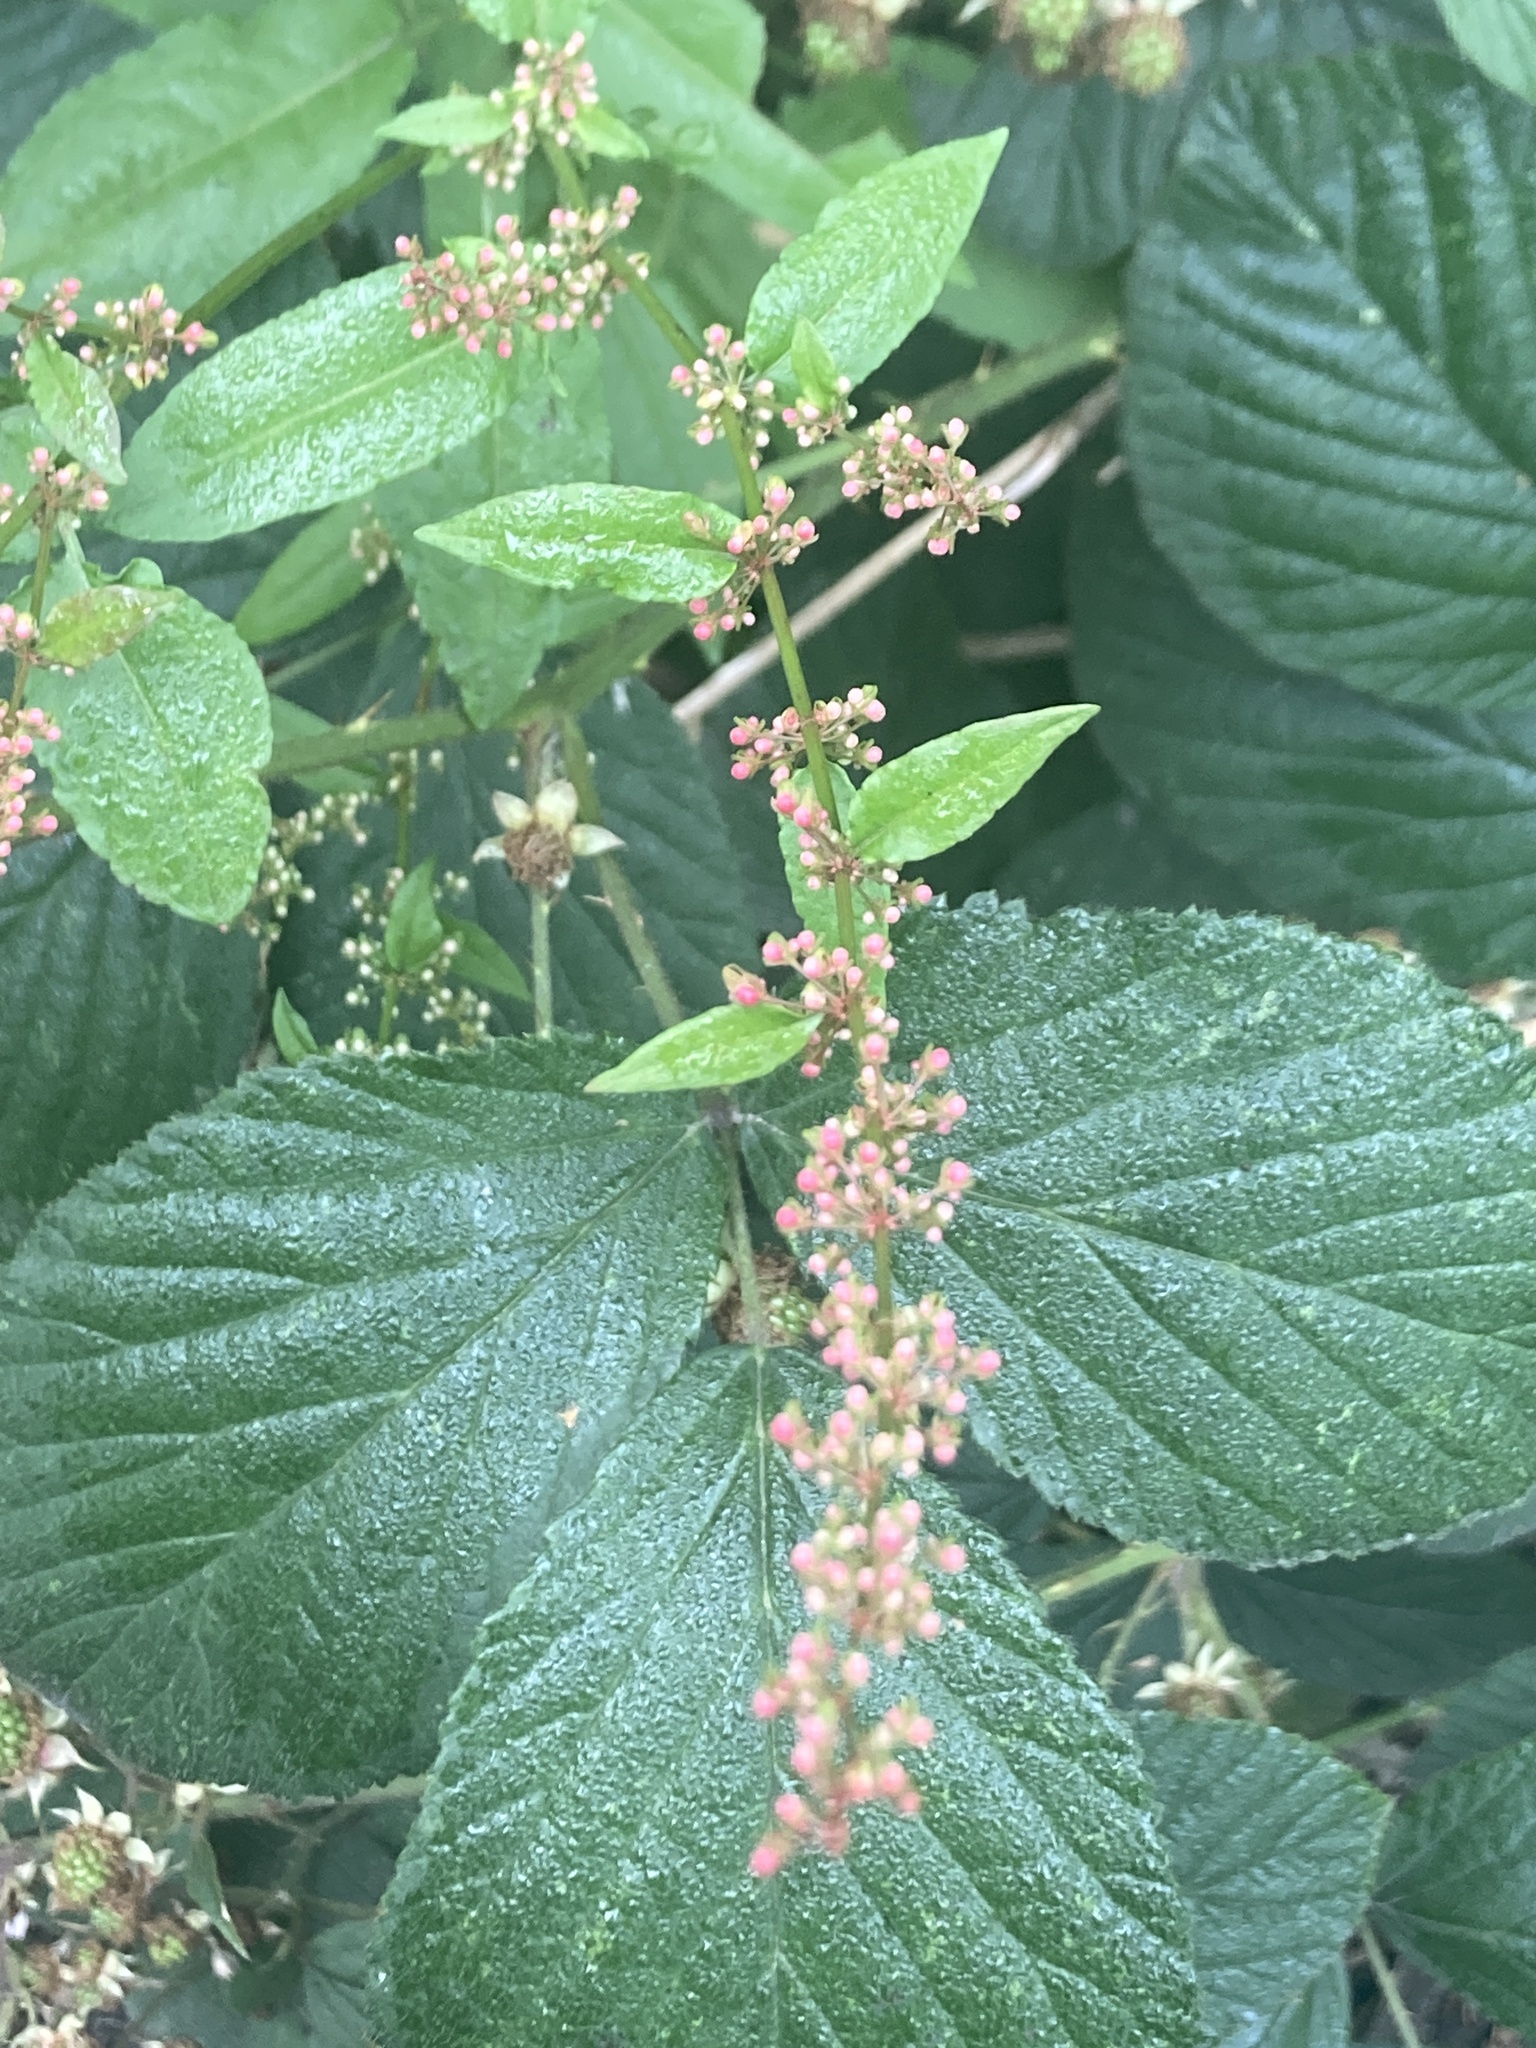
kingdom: Plantae
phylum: Tracheophyta
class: Magnoliopsida
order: Caryophyllales
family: Polygonaceae
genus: Rumex
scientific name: Rumex sanguineus
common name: Wood dock
